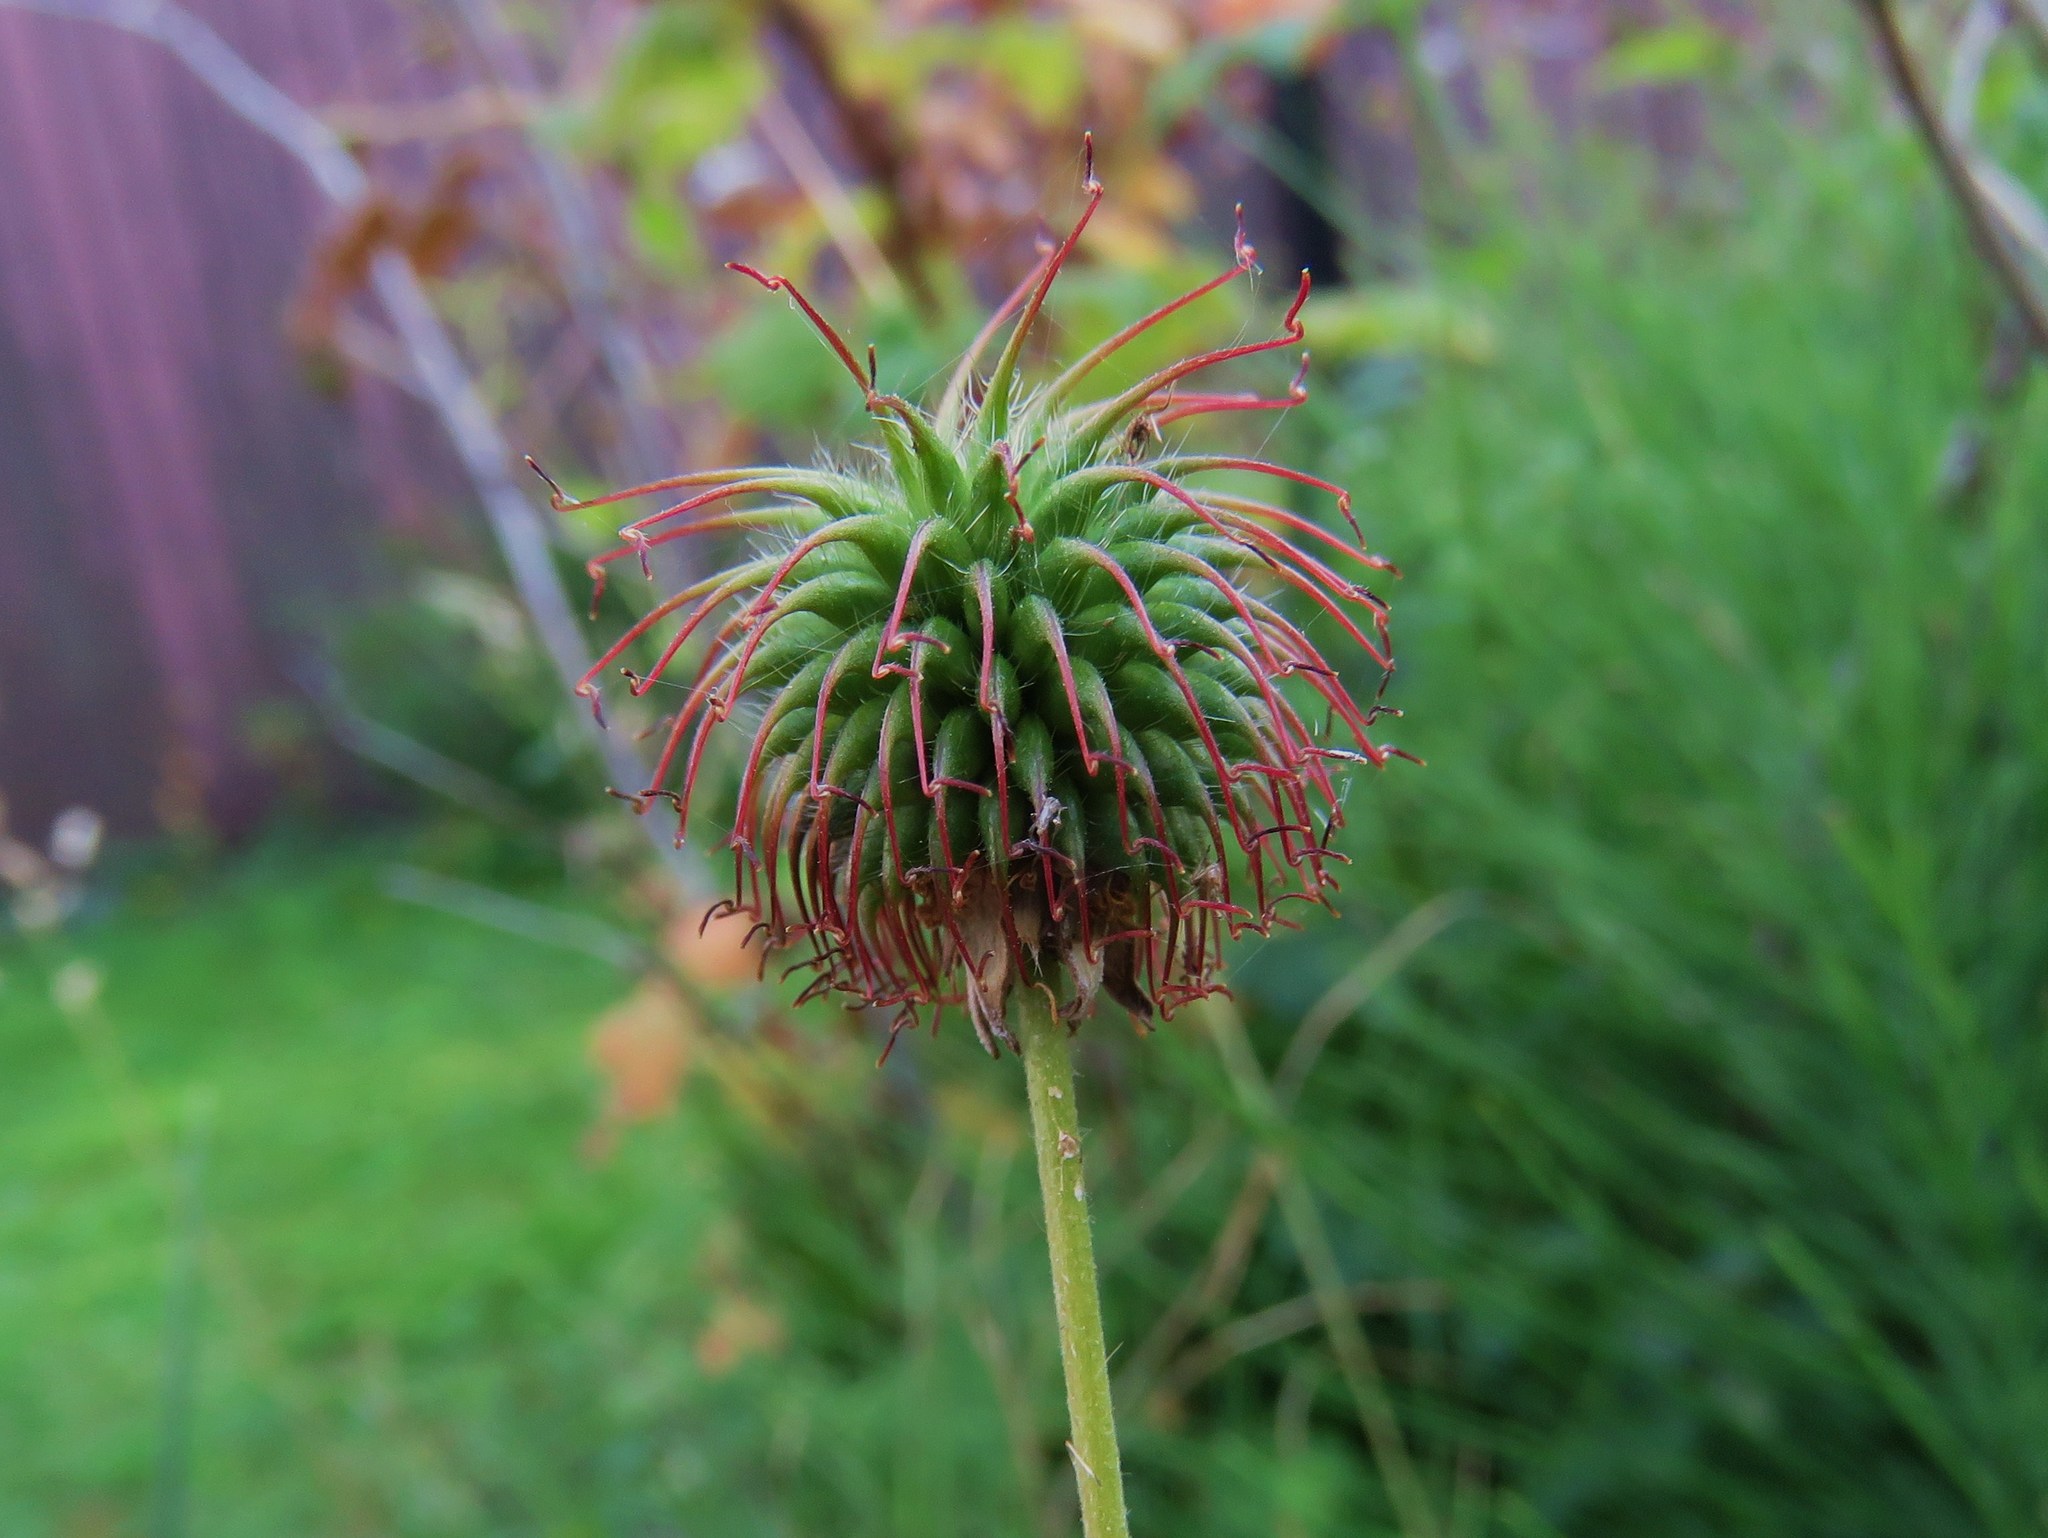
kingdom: Plantae
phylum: Tracheophyta
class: Magnoliopsida
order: Rosales
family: Rosaceae
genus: Geum
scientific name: Geum urbanum
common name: Wood avens
